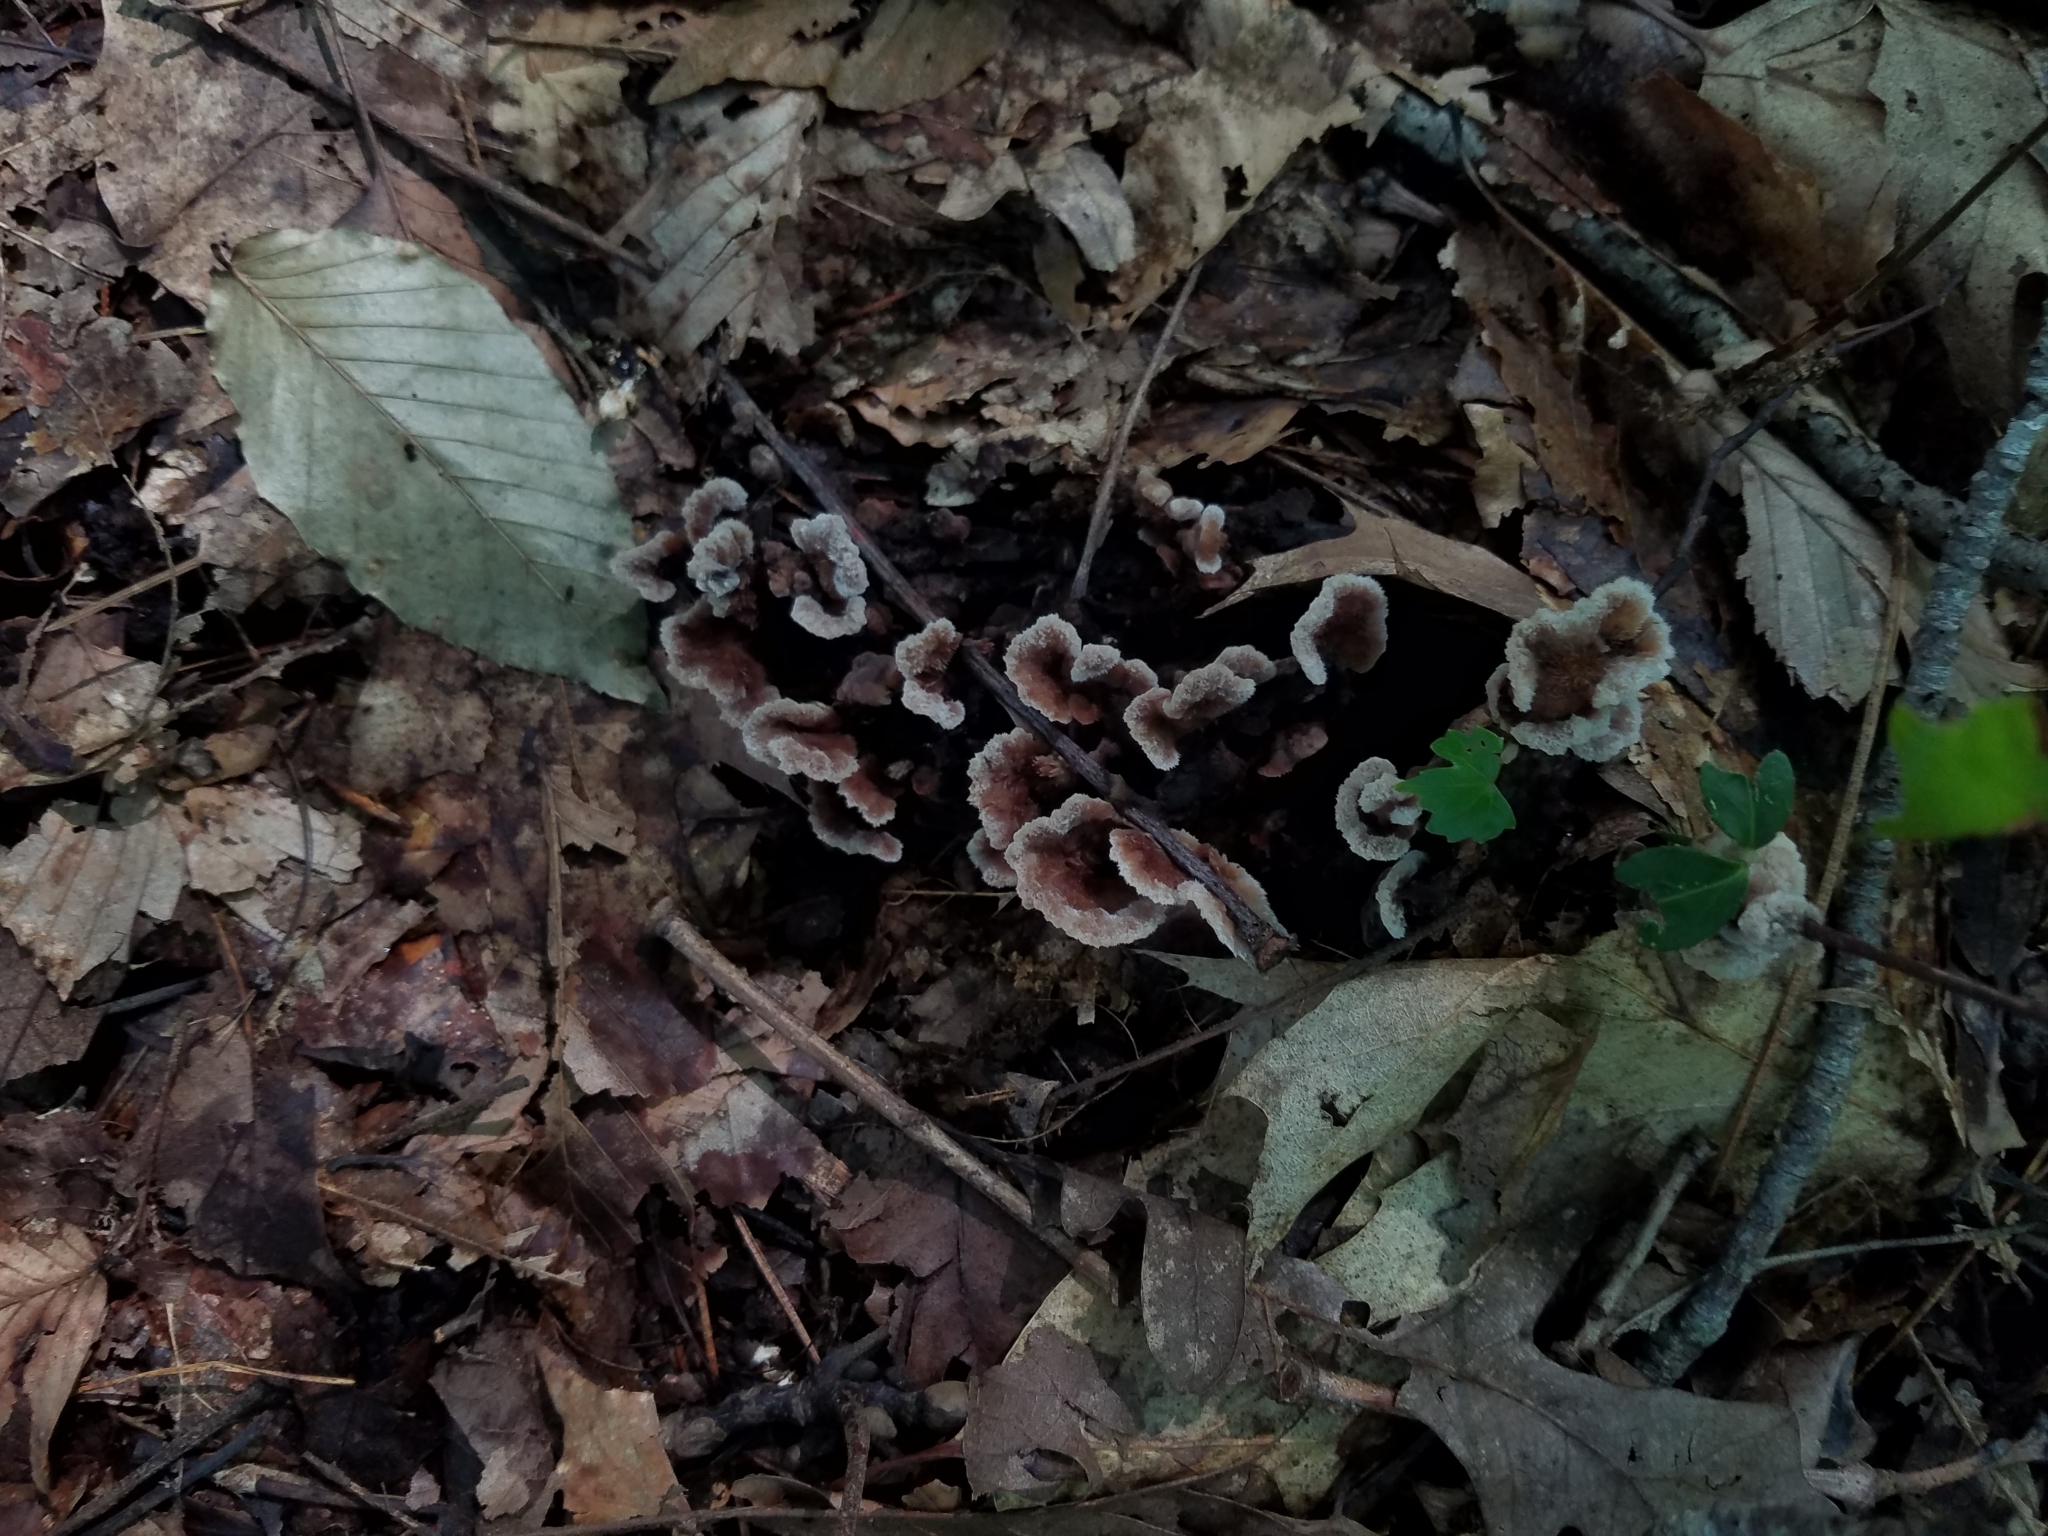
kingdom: Fungi
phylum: Basidiomycota
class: Agaricomycetes
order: Thelephorales
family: Thelephoraceae
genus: Thelephora
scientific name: Thelephora terrestris
